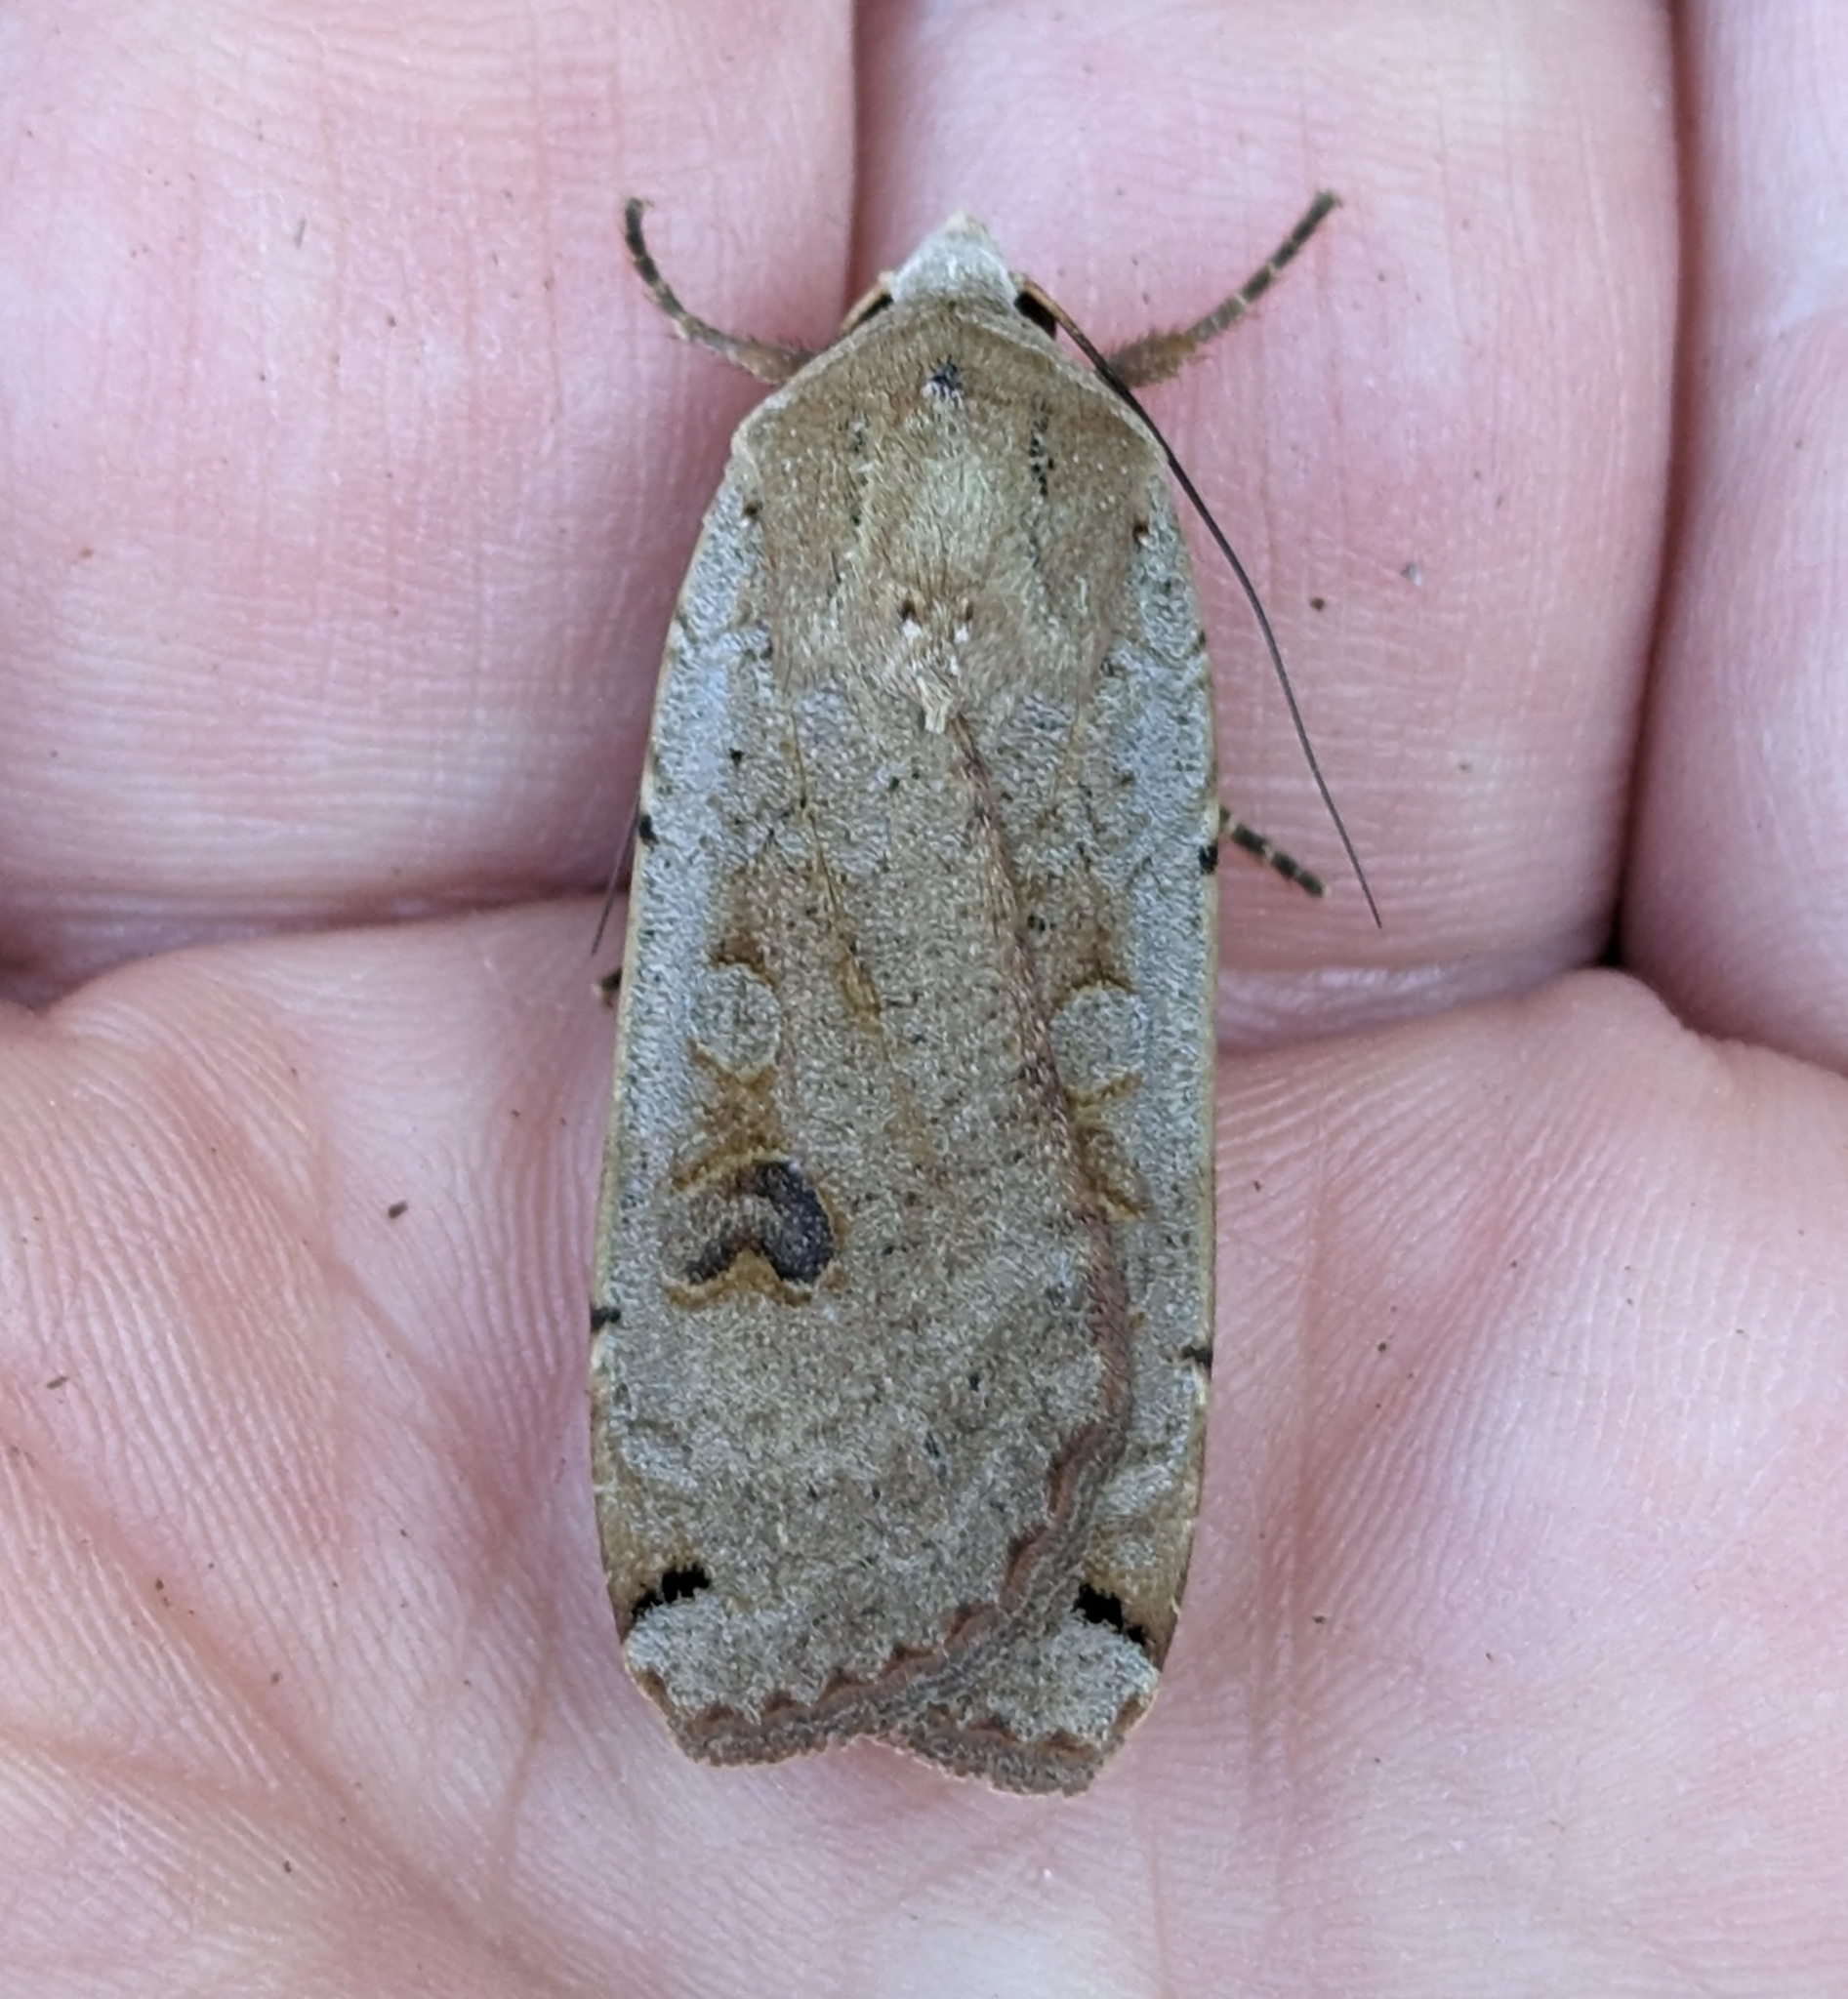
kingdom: Animalia
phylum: Arthropoda
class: Insecta
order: Lepidoptera
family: Noctuidae
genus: Noctua
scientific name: Noctua pronuba
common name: Large yellow underwing
